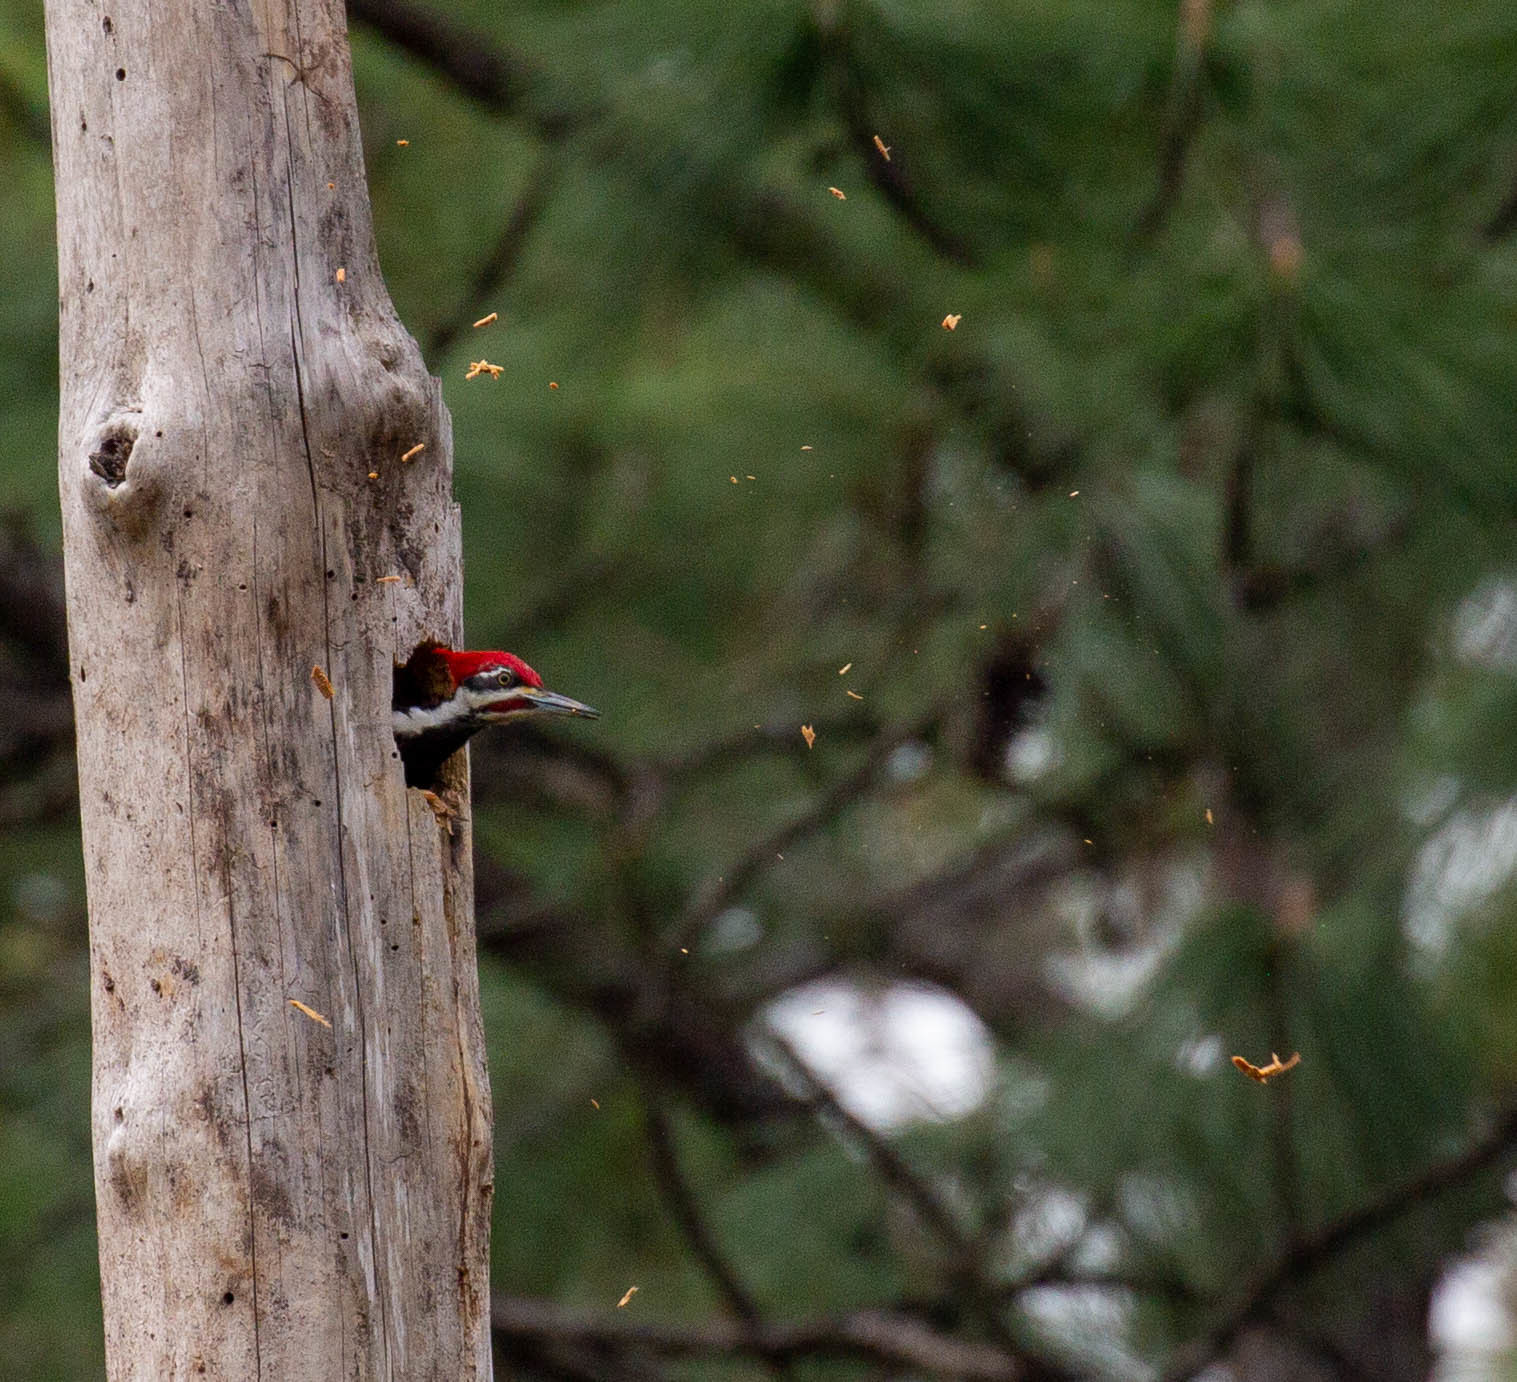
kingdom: Animalia
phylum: Chordata
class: Aves
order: Piciformes
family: Picidae
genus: Dryocopus
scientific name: Dryocopus pileatus
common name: Pileated woodpecker
